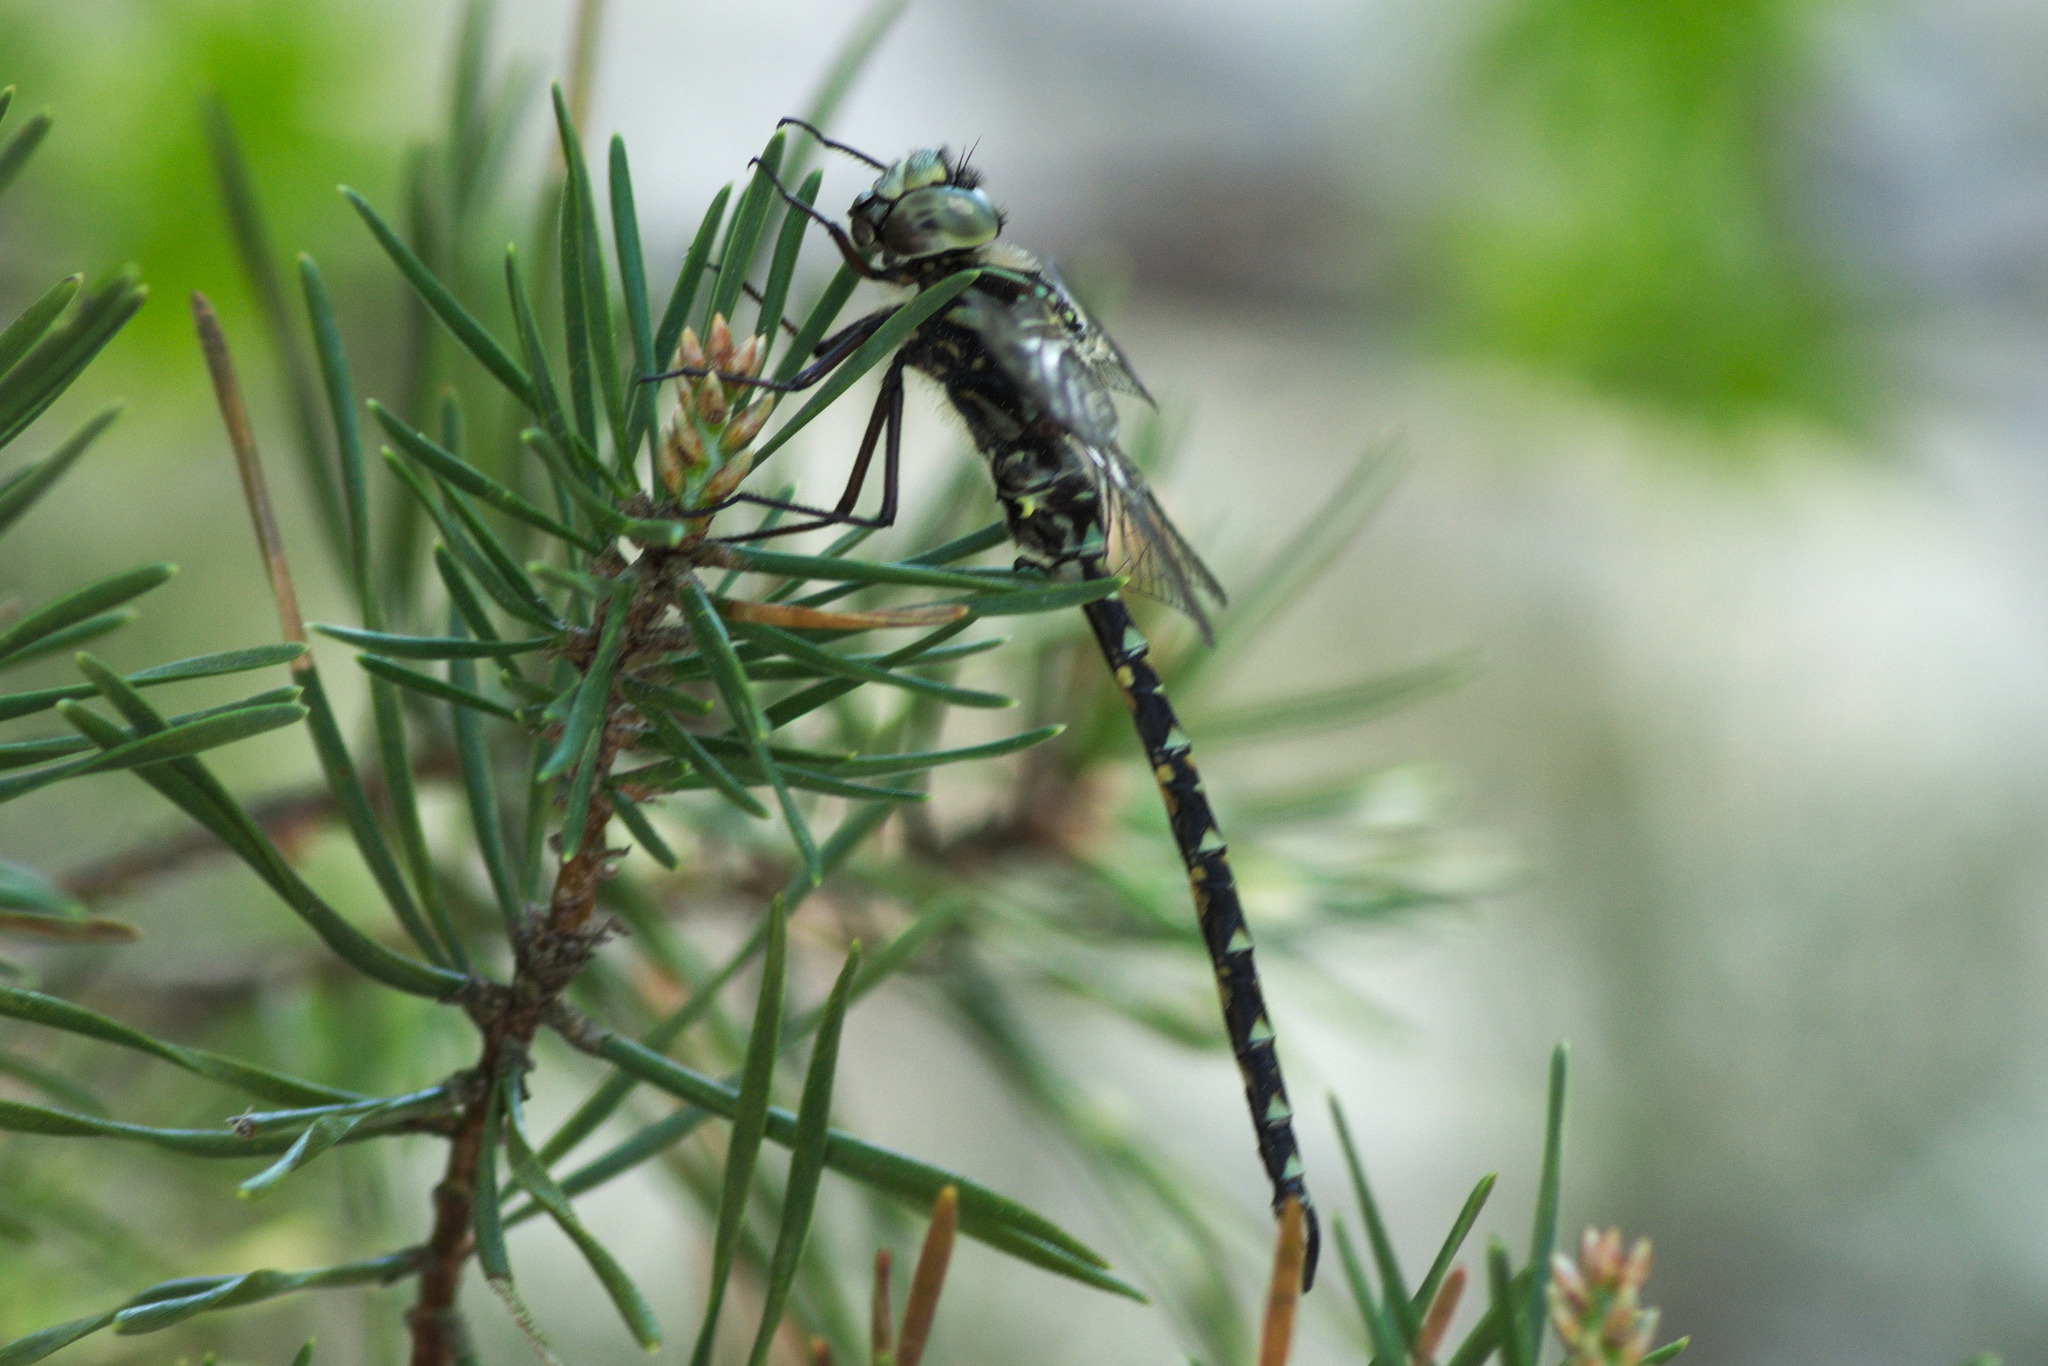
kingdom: Animalia
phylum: Arthropoda
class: Insecta
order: Odonata
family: Aeshnidae
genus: Gomphaeschna
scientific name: Gomphaeschna furcillata
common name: Harlequin darner
